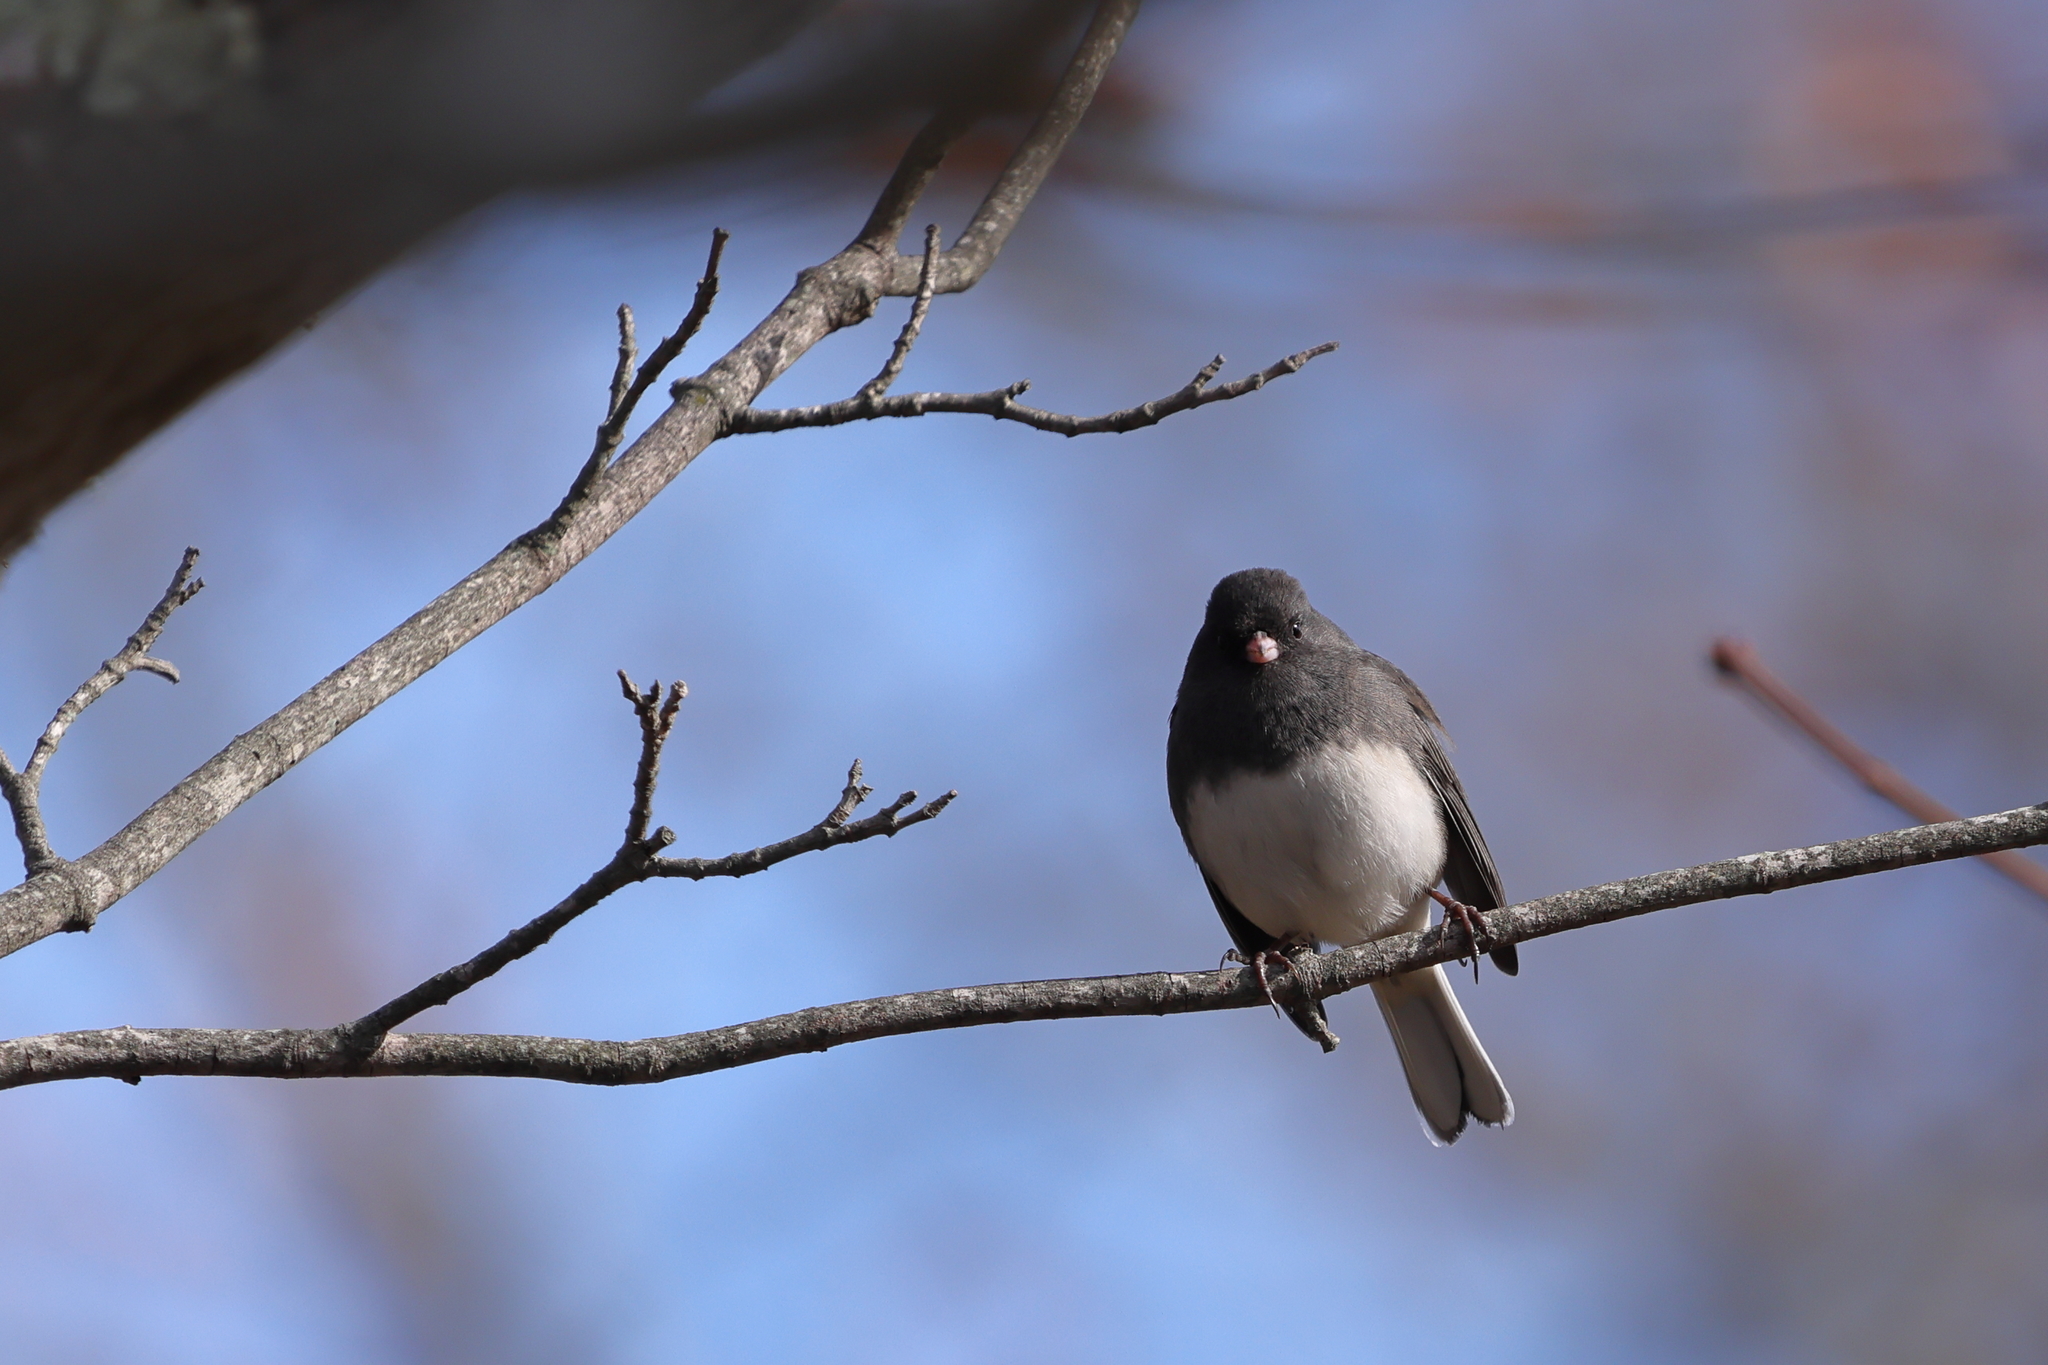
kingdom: Animalia
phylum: Chordata
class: Aves
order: Passeriformes
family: Passerellidae
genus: Junco
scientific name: Junco hyemalis
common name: Dark-eyed junco
